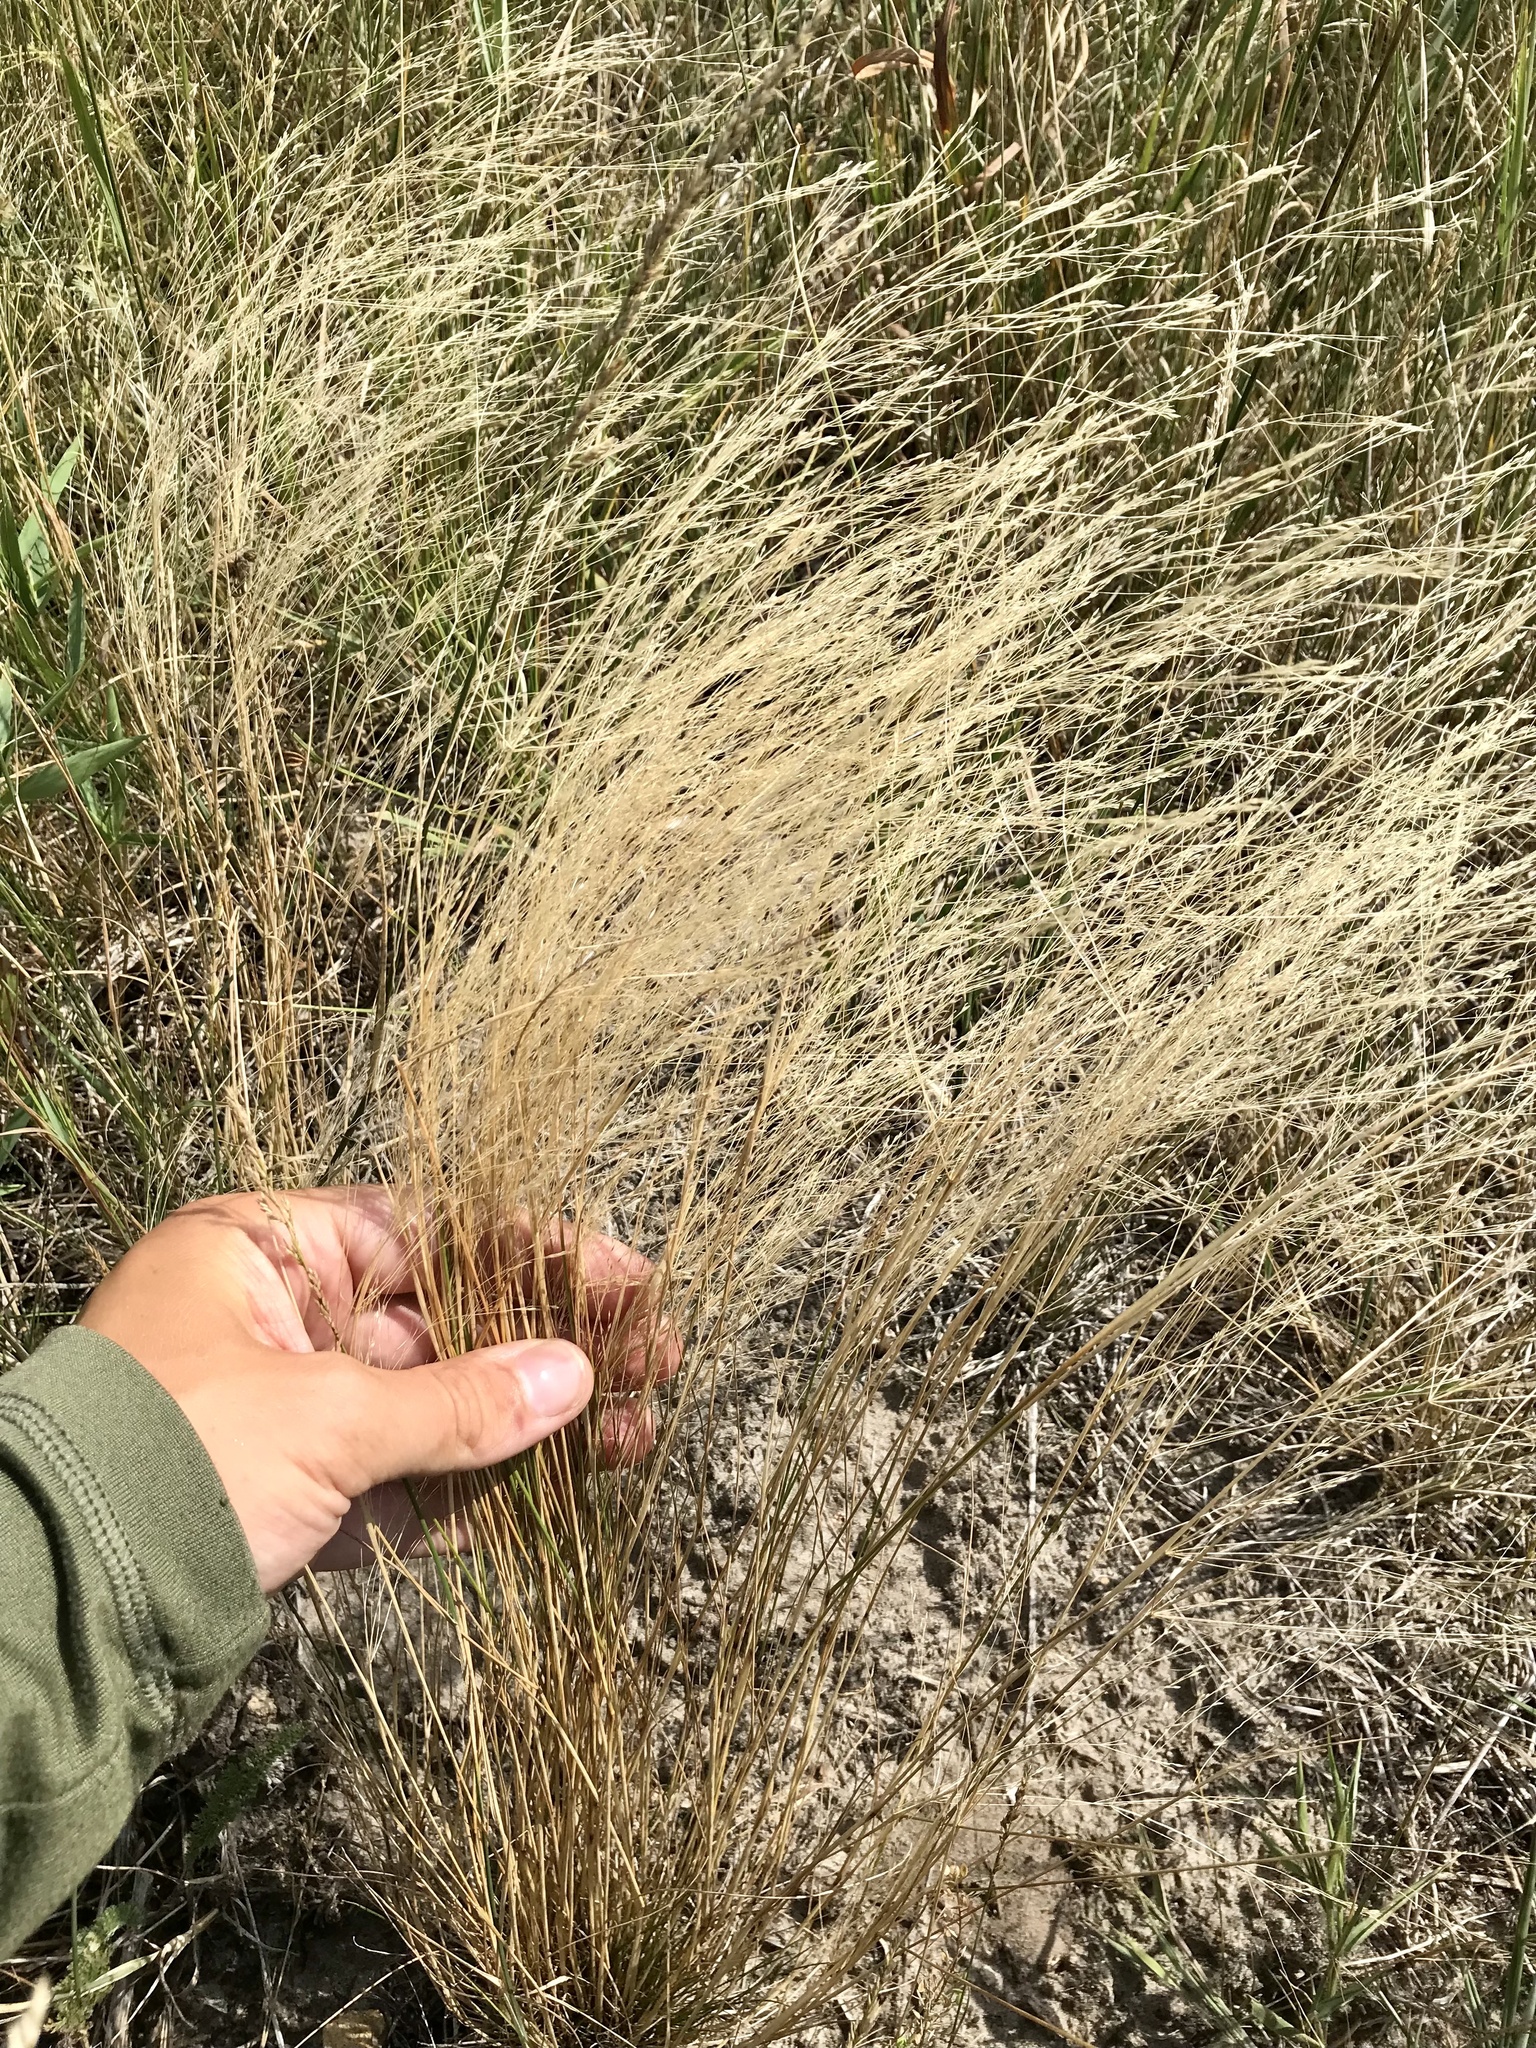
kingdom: Plantae
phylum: Tracheophyta
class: Liliopsida
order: Poales
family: Poaceae
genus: Agrostis
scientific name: Agrostis scabra
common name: Rough bent
